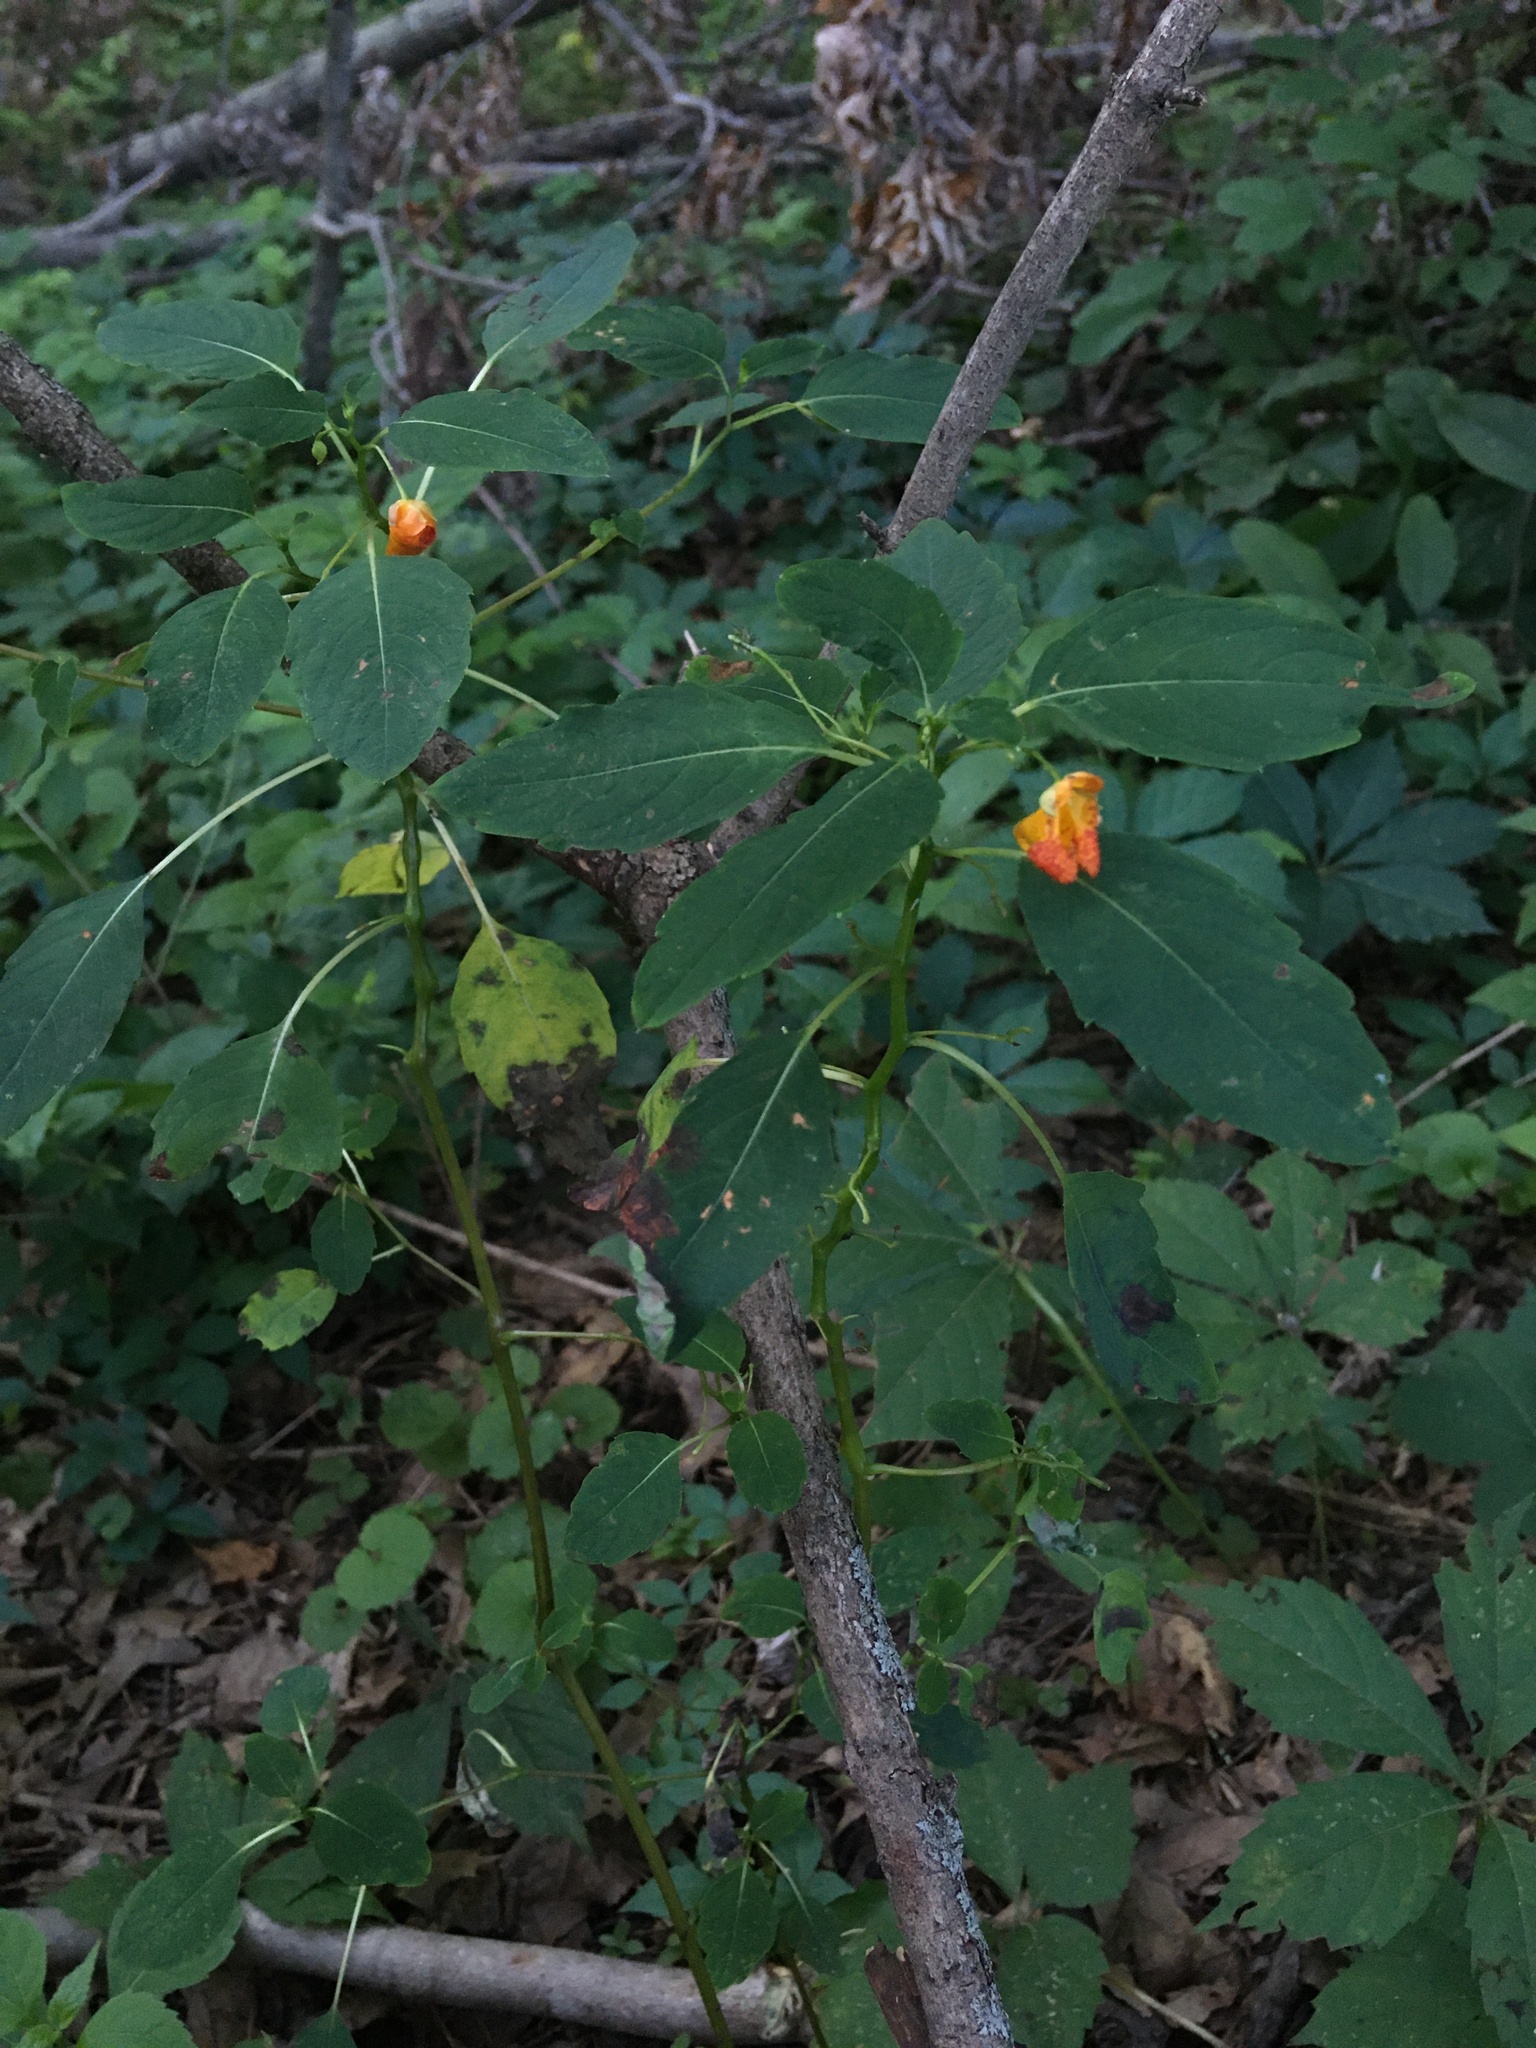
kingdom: Plantae
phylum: Tracheophyta
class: Magnoliopsida
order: Ericales
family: Balsaminaceae
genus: Impatiens
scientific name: Impatiens capensis
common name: Orange balsam
